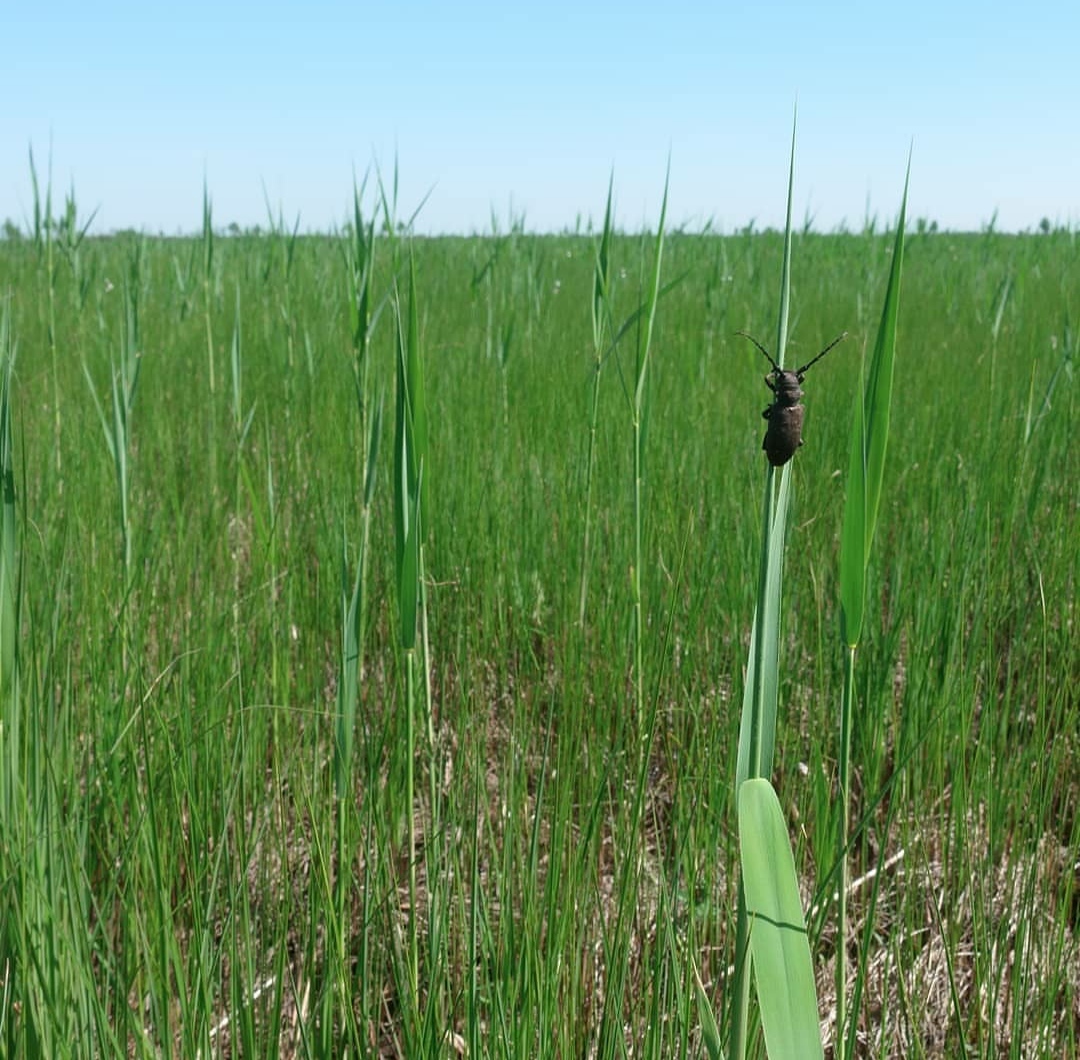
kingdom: Animalia
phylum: Arthropoda
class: Insecta
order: Coleoptera
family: Cerambycidae
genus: Lamia
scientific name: Lamia textor
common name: Weaver beetle
